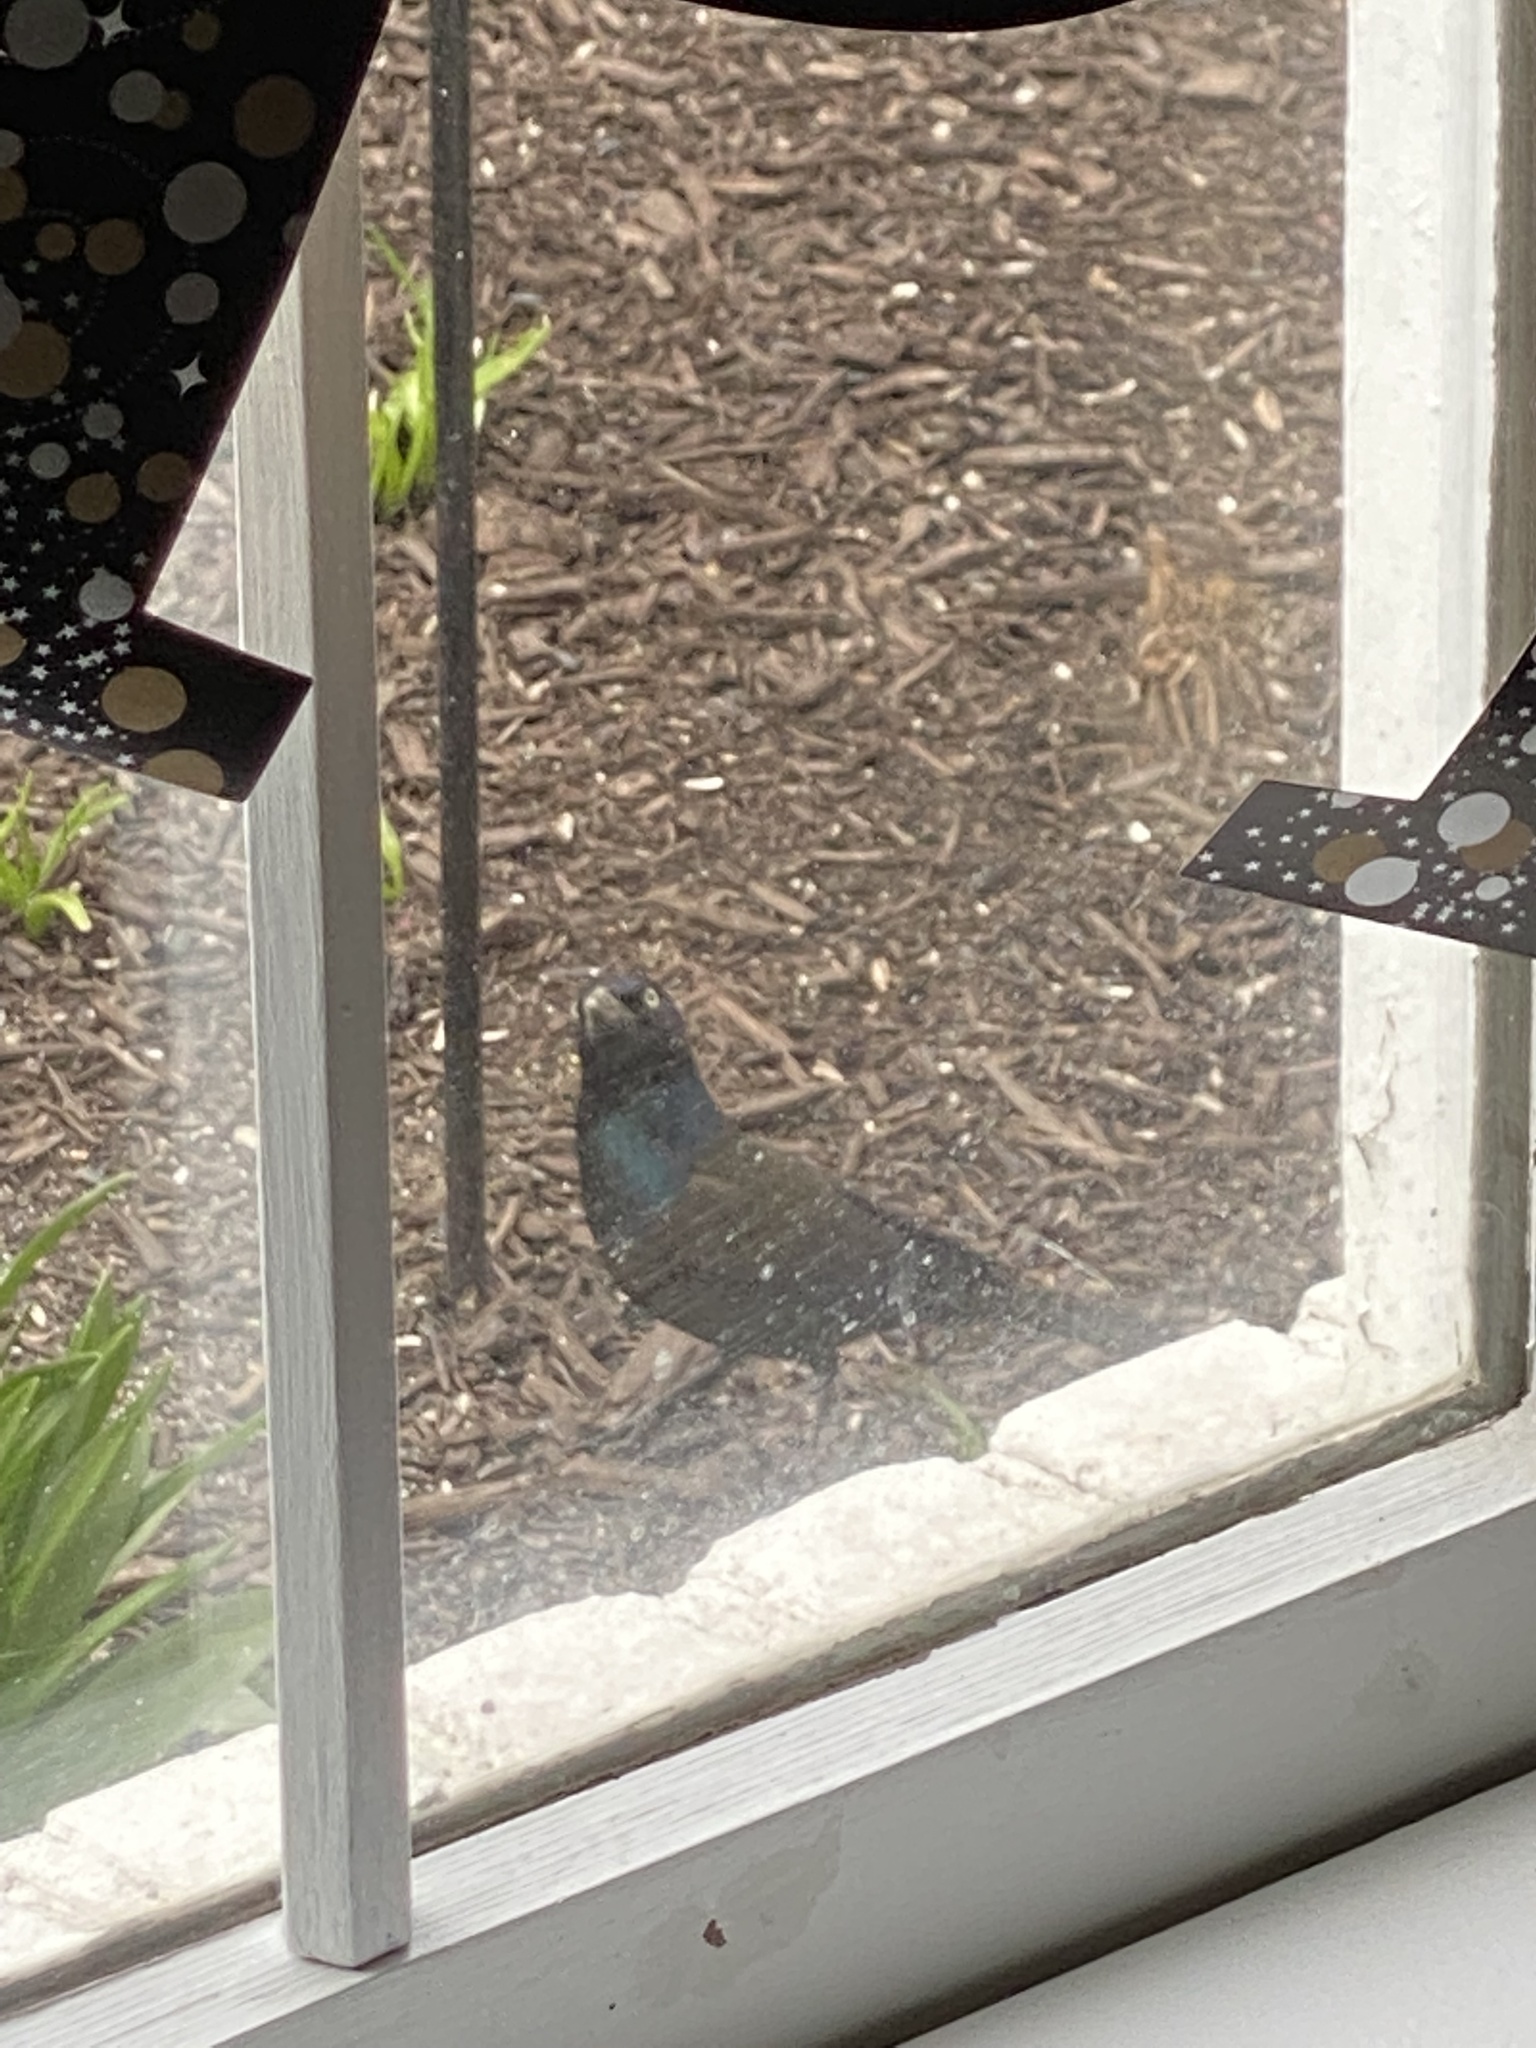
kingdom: Animalia
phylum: Chordata
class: Aves
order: Passeriformes
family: Icteridae
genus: Quiscalus
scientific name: Quiscalus quiscula
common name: Common grackle
